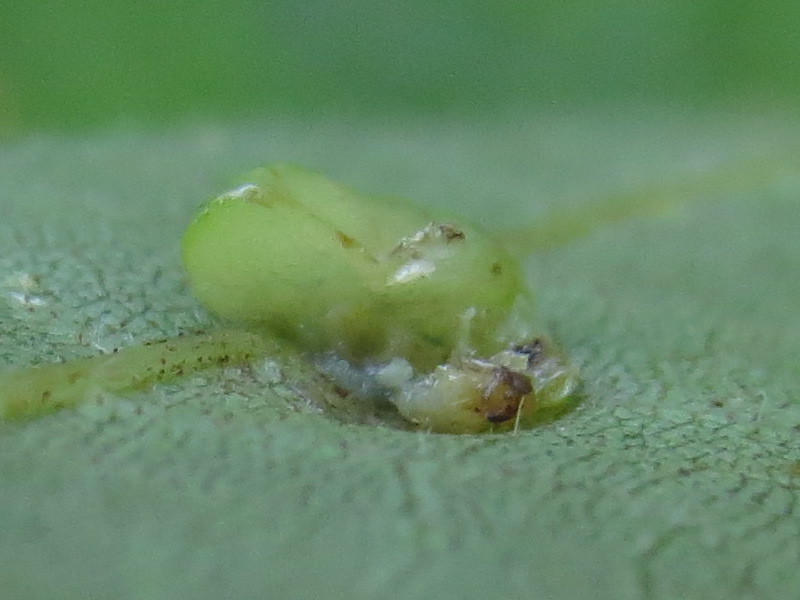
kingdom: Animalia
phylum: Arthropoda
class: Insecta
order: Diptera
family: Cecidomyiidae
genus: Caryomyia
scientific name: Caryomyia biretta
